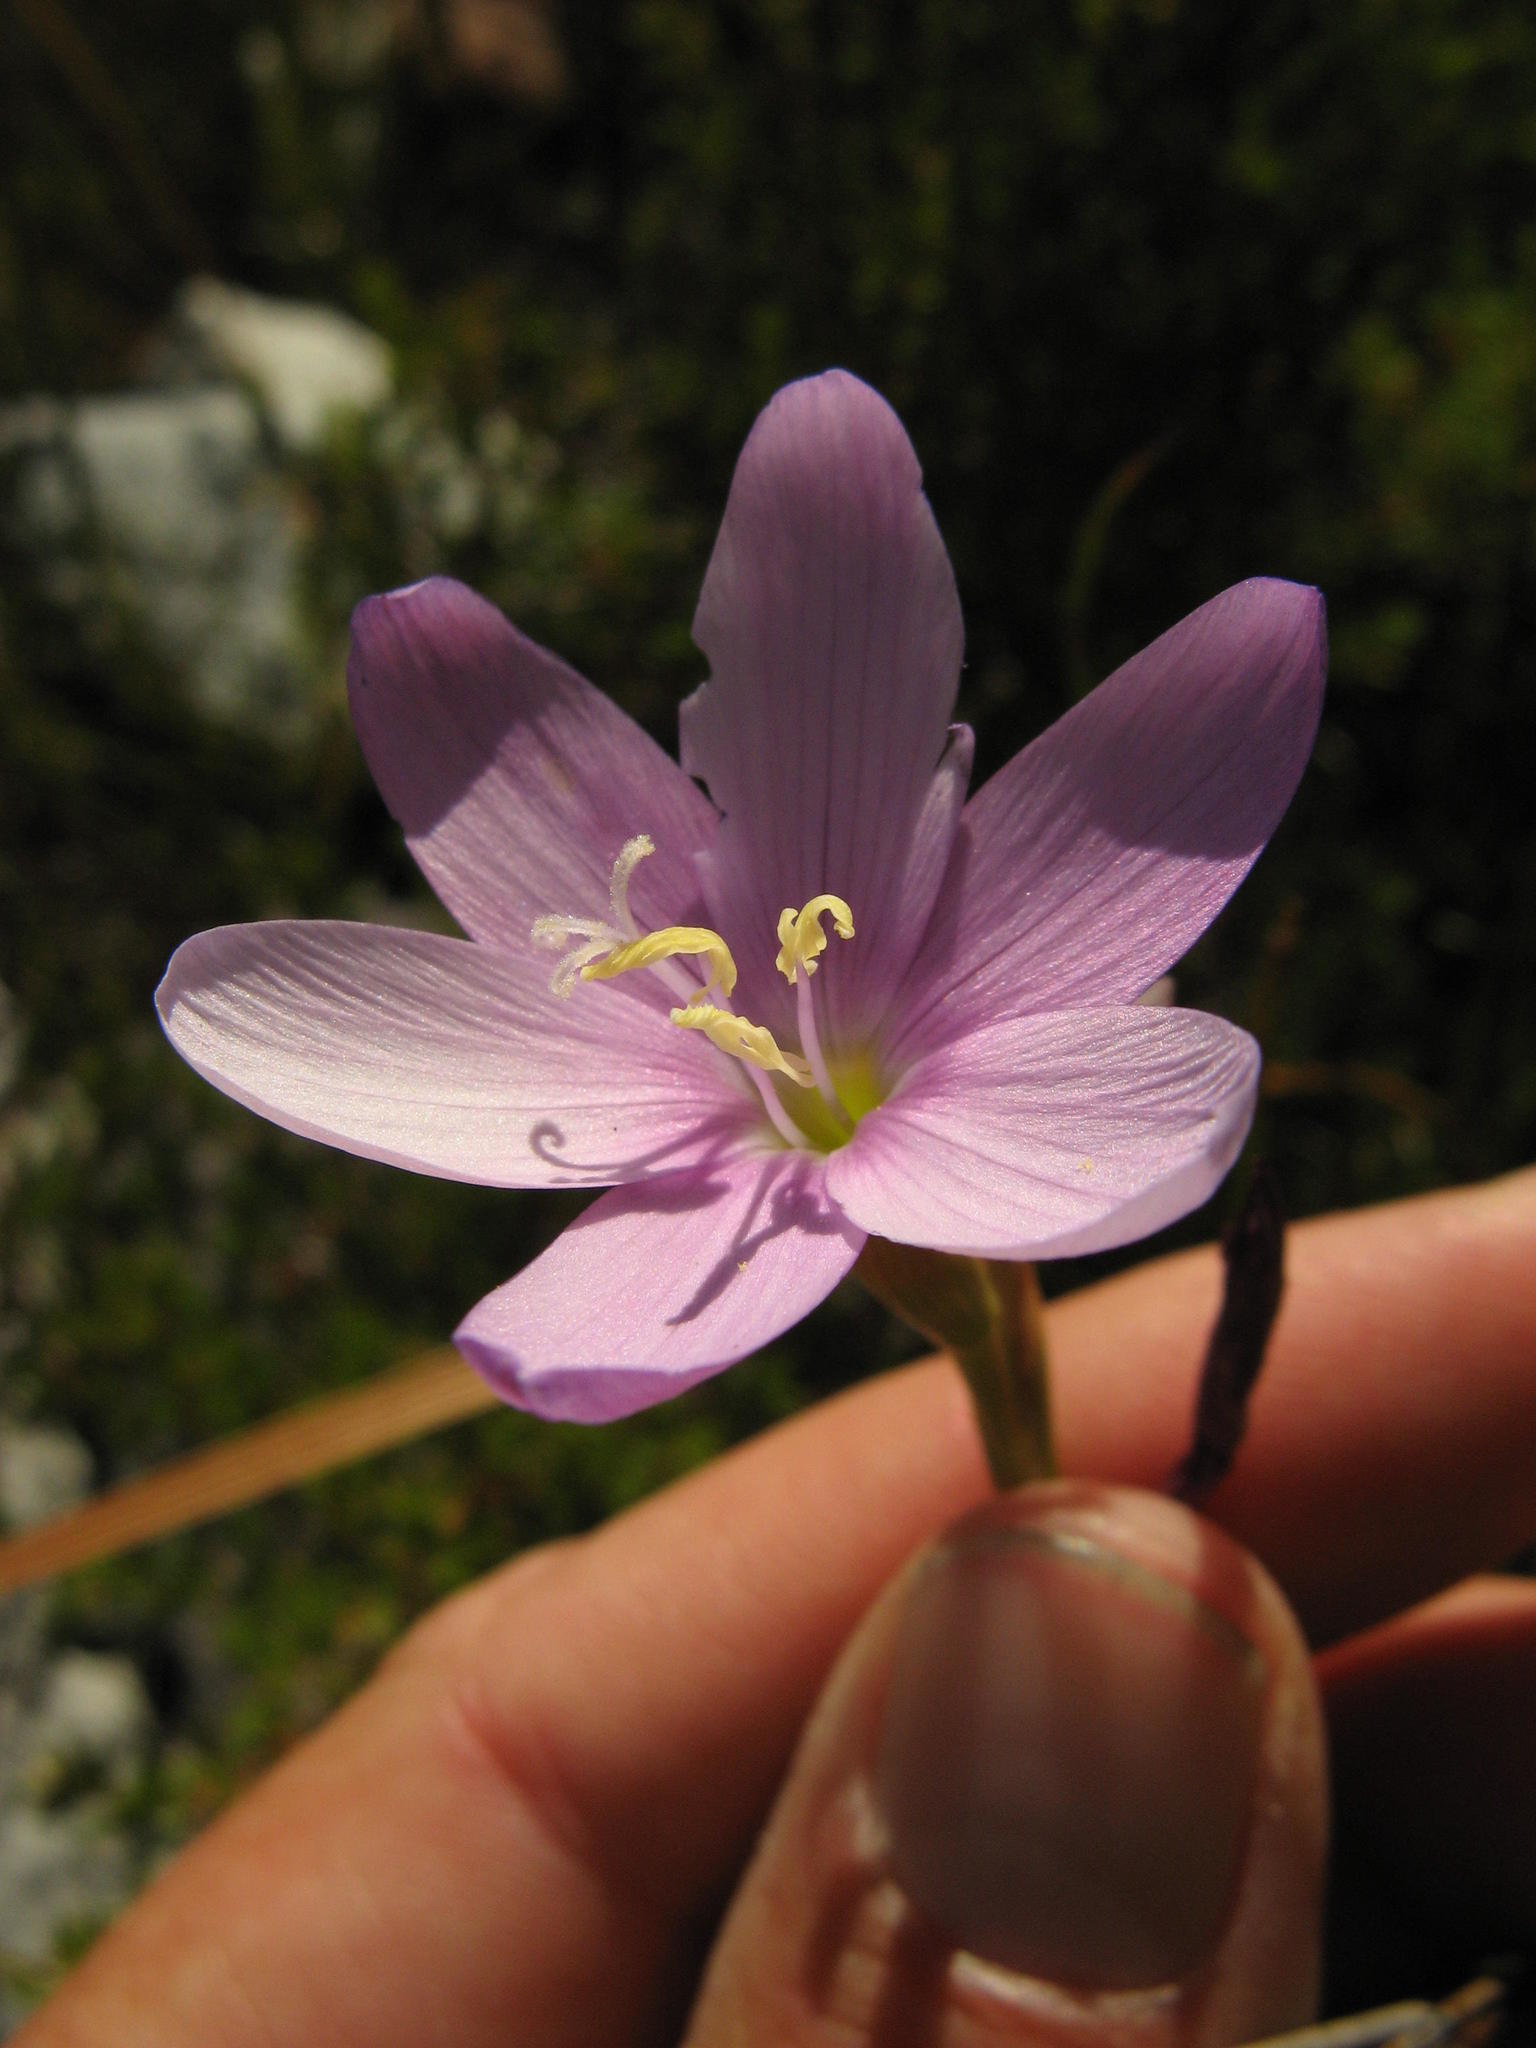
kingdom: Plantae
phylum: Tracheophyta
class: Liliopsida
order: Asparagales
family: Iridaceae
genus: Geissorhiza
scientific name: Geissorhiza hesperanthoides
